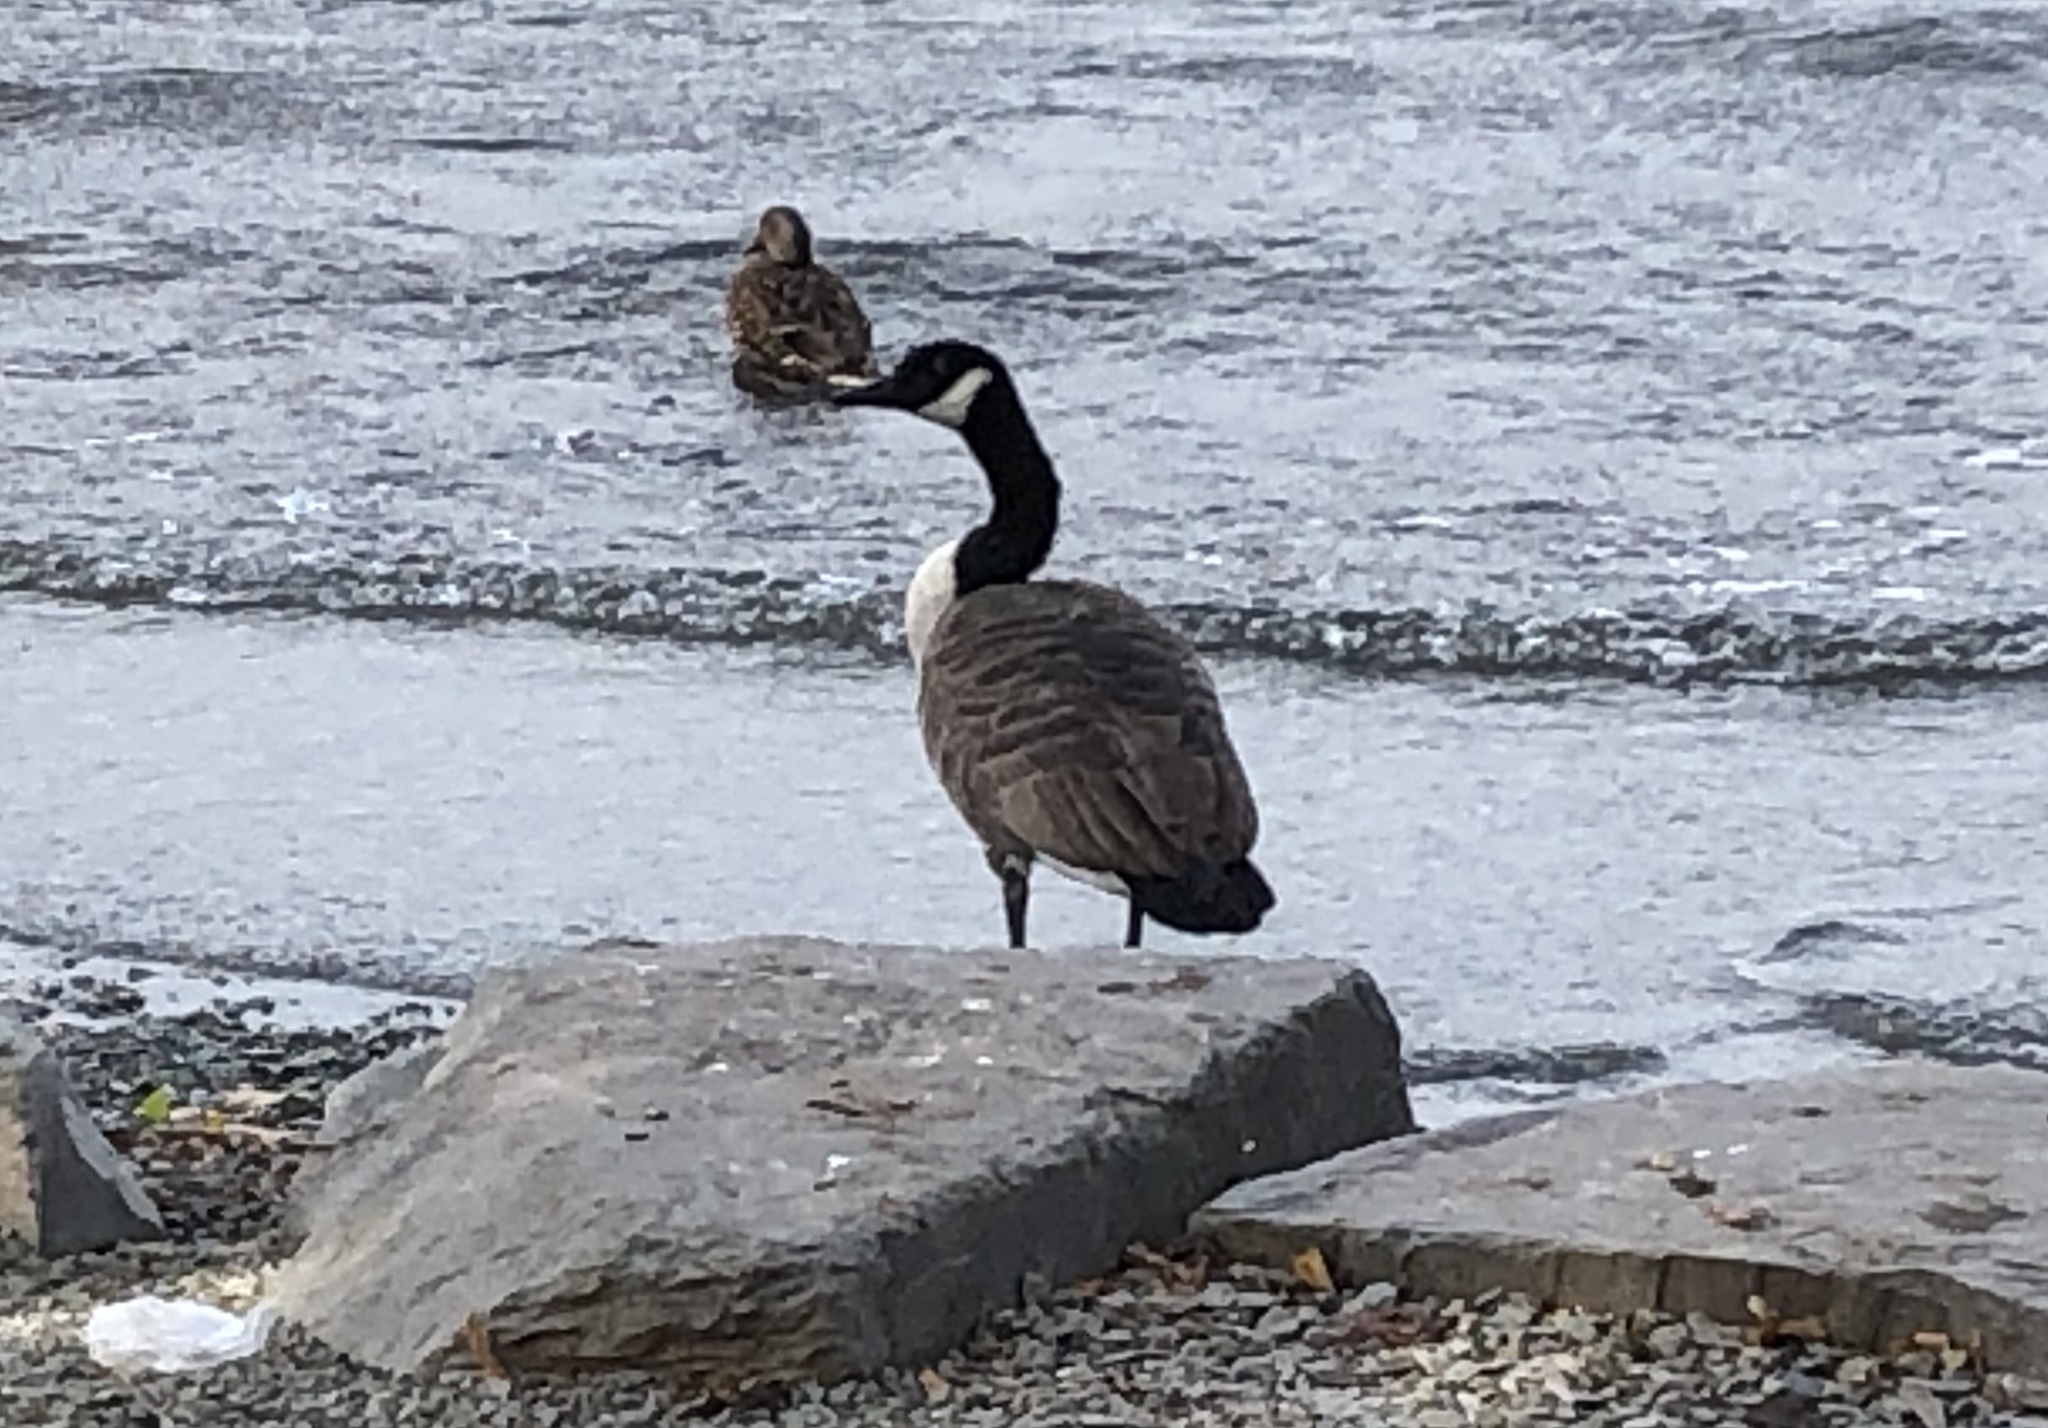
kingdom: Animalia
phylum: Chordata
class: Aves
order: Anseriformes
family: Anatidae
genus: Branta
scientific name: Branta canadensis
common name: Canada goose
